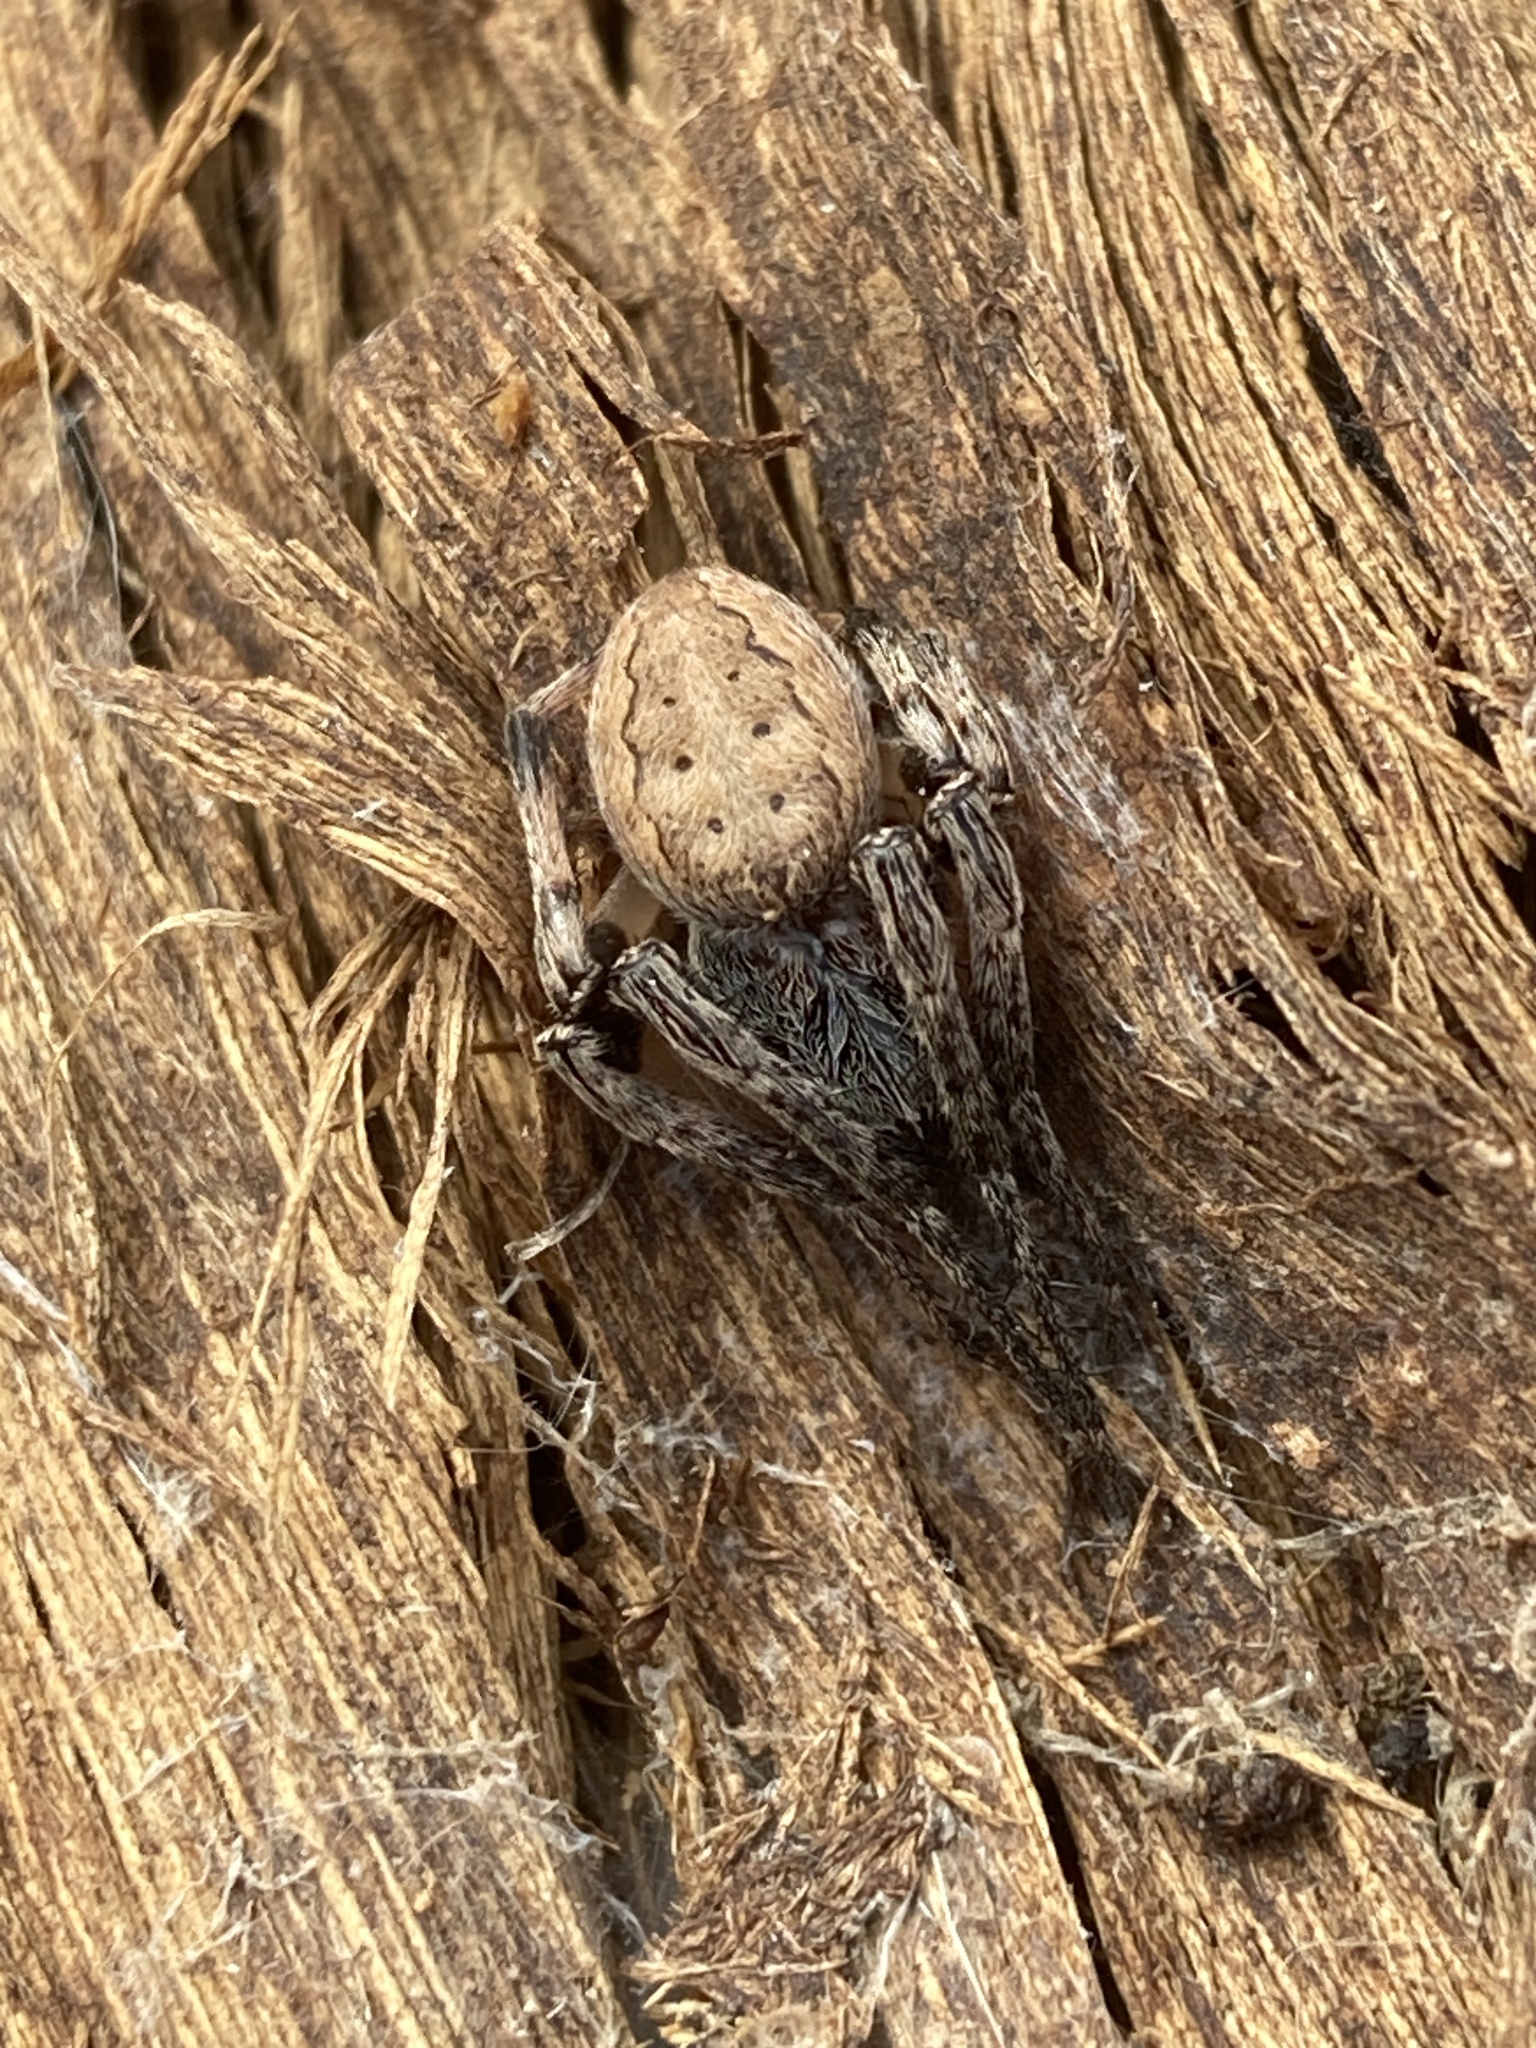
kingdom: Animalia
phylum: Arthropoda
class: Arachnida
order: Araneae
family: Araneidae
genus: Larinioides
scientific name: Larinioides cornutus
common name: Furrow orbweaver
